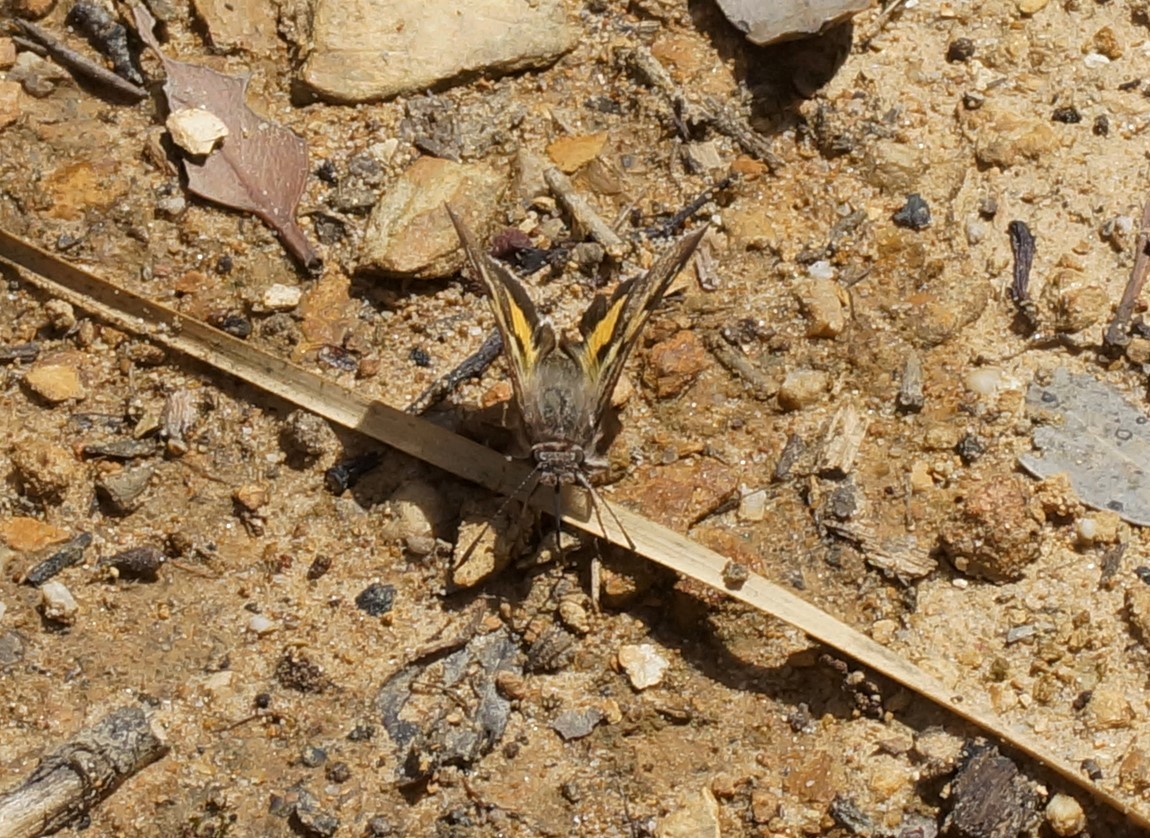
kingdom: Animalia
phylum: Arthropoda
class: Insecta
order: Lepidoptera
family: Hesperiidae
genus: Trapezites
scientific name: Trapezites phigalioides
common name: Montane ochre
